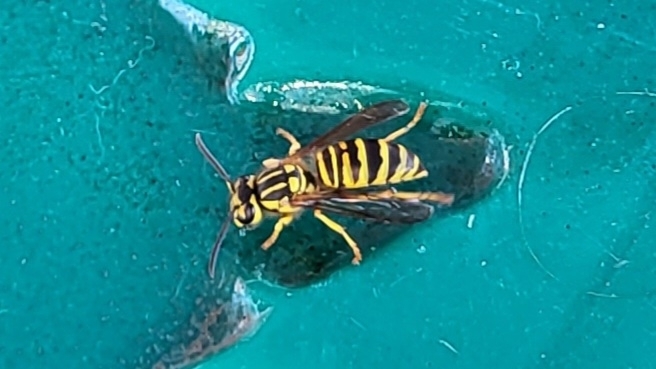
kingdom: Animalia
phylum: Arthropoda
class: Insecta
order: Hymenoptera
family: Vespidae
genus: Vespula
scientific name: Vespula squamosa
